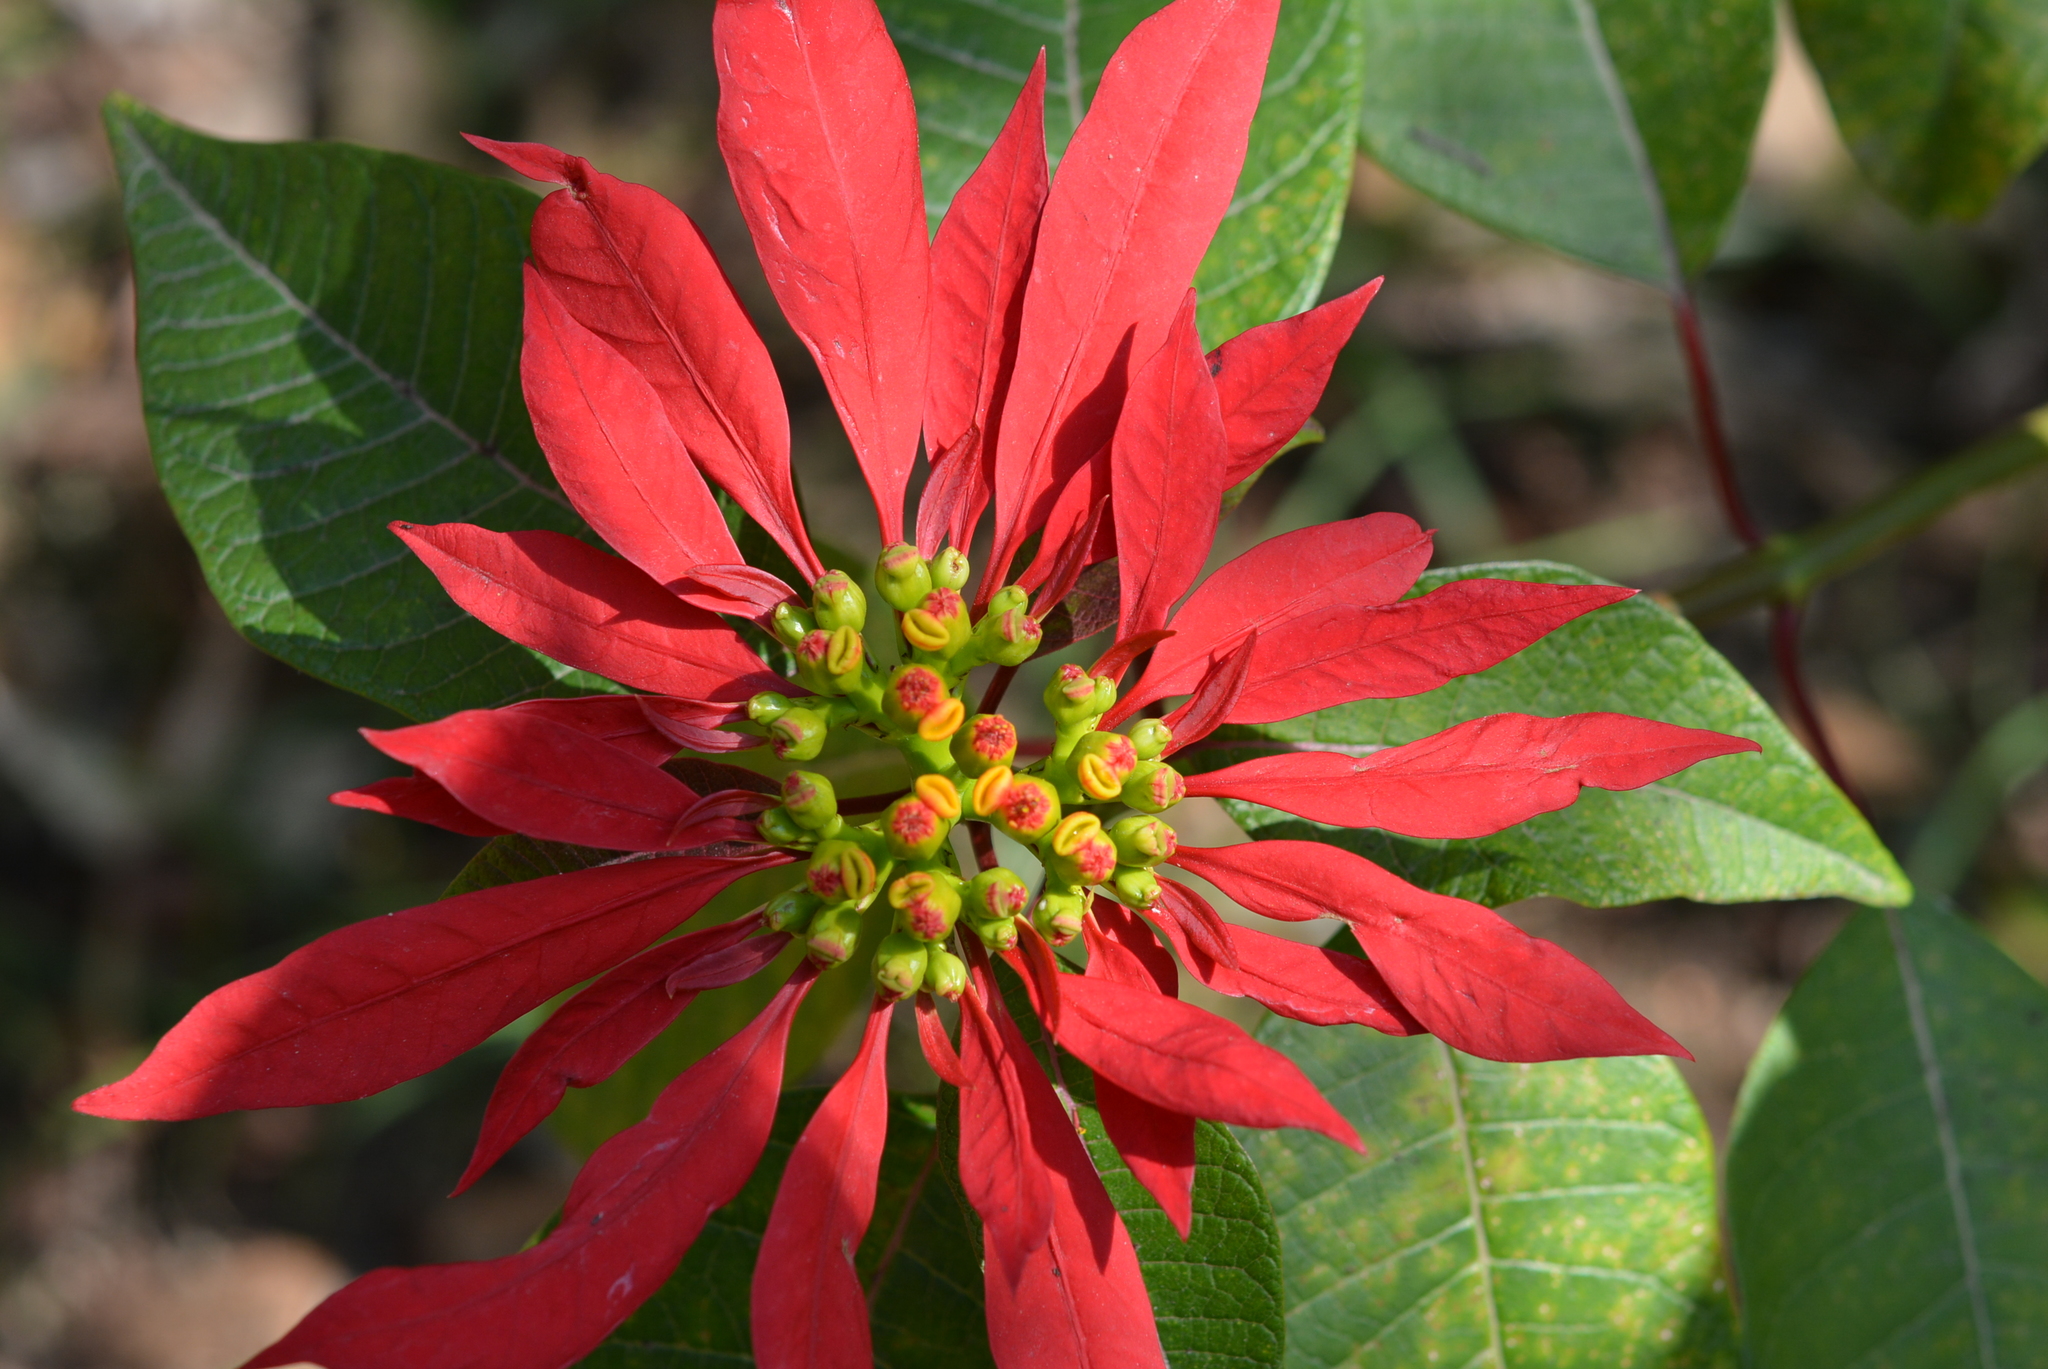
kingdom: Plantae
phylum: Tracheophyta
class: Magnoliopsida
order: Malpighiales
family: Euphorbiaceae
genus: Euphorbia
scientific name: Euphorbia pulcherrima
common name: Christmas-flower
